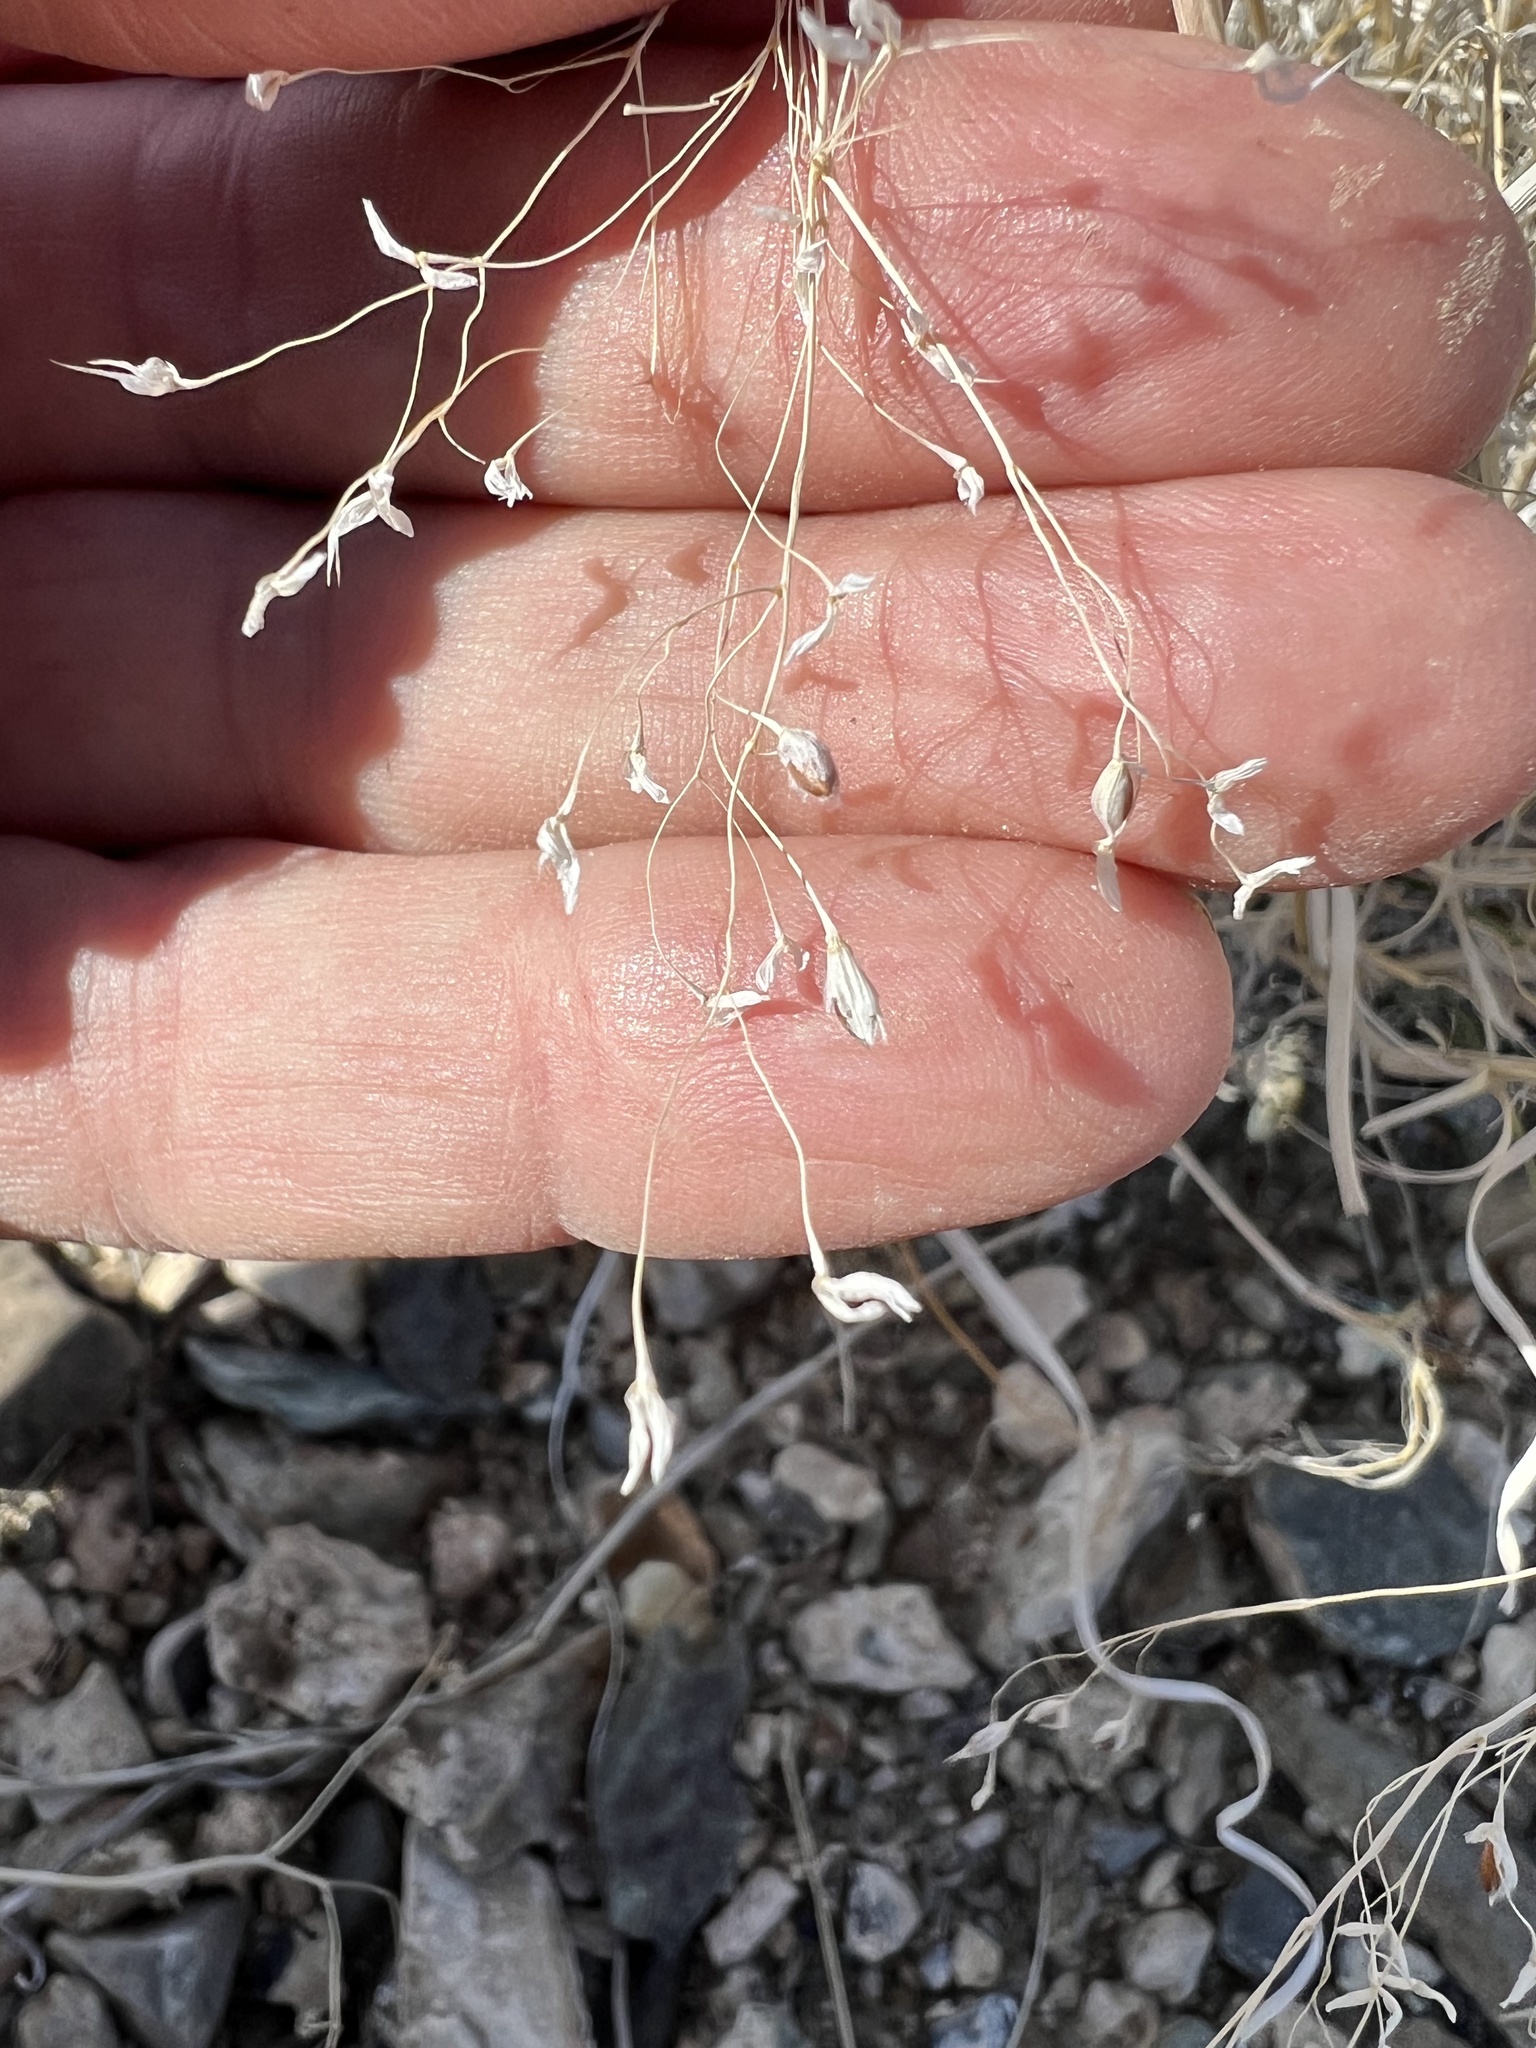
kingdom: Plantae
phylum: Tracheophyta
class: Liliopsida
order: Poales
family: Poaceae
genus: Eriocoma
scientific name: Eriocoma hymenoides
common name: Indian mountain ricegrass
